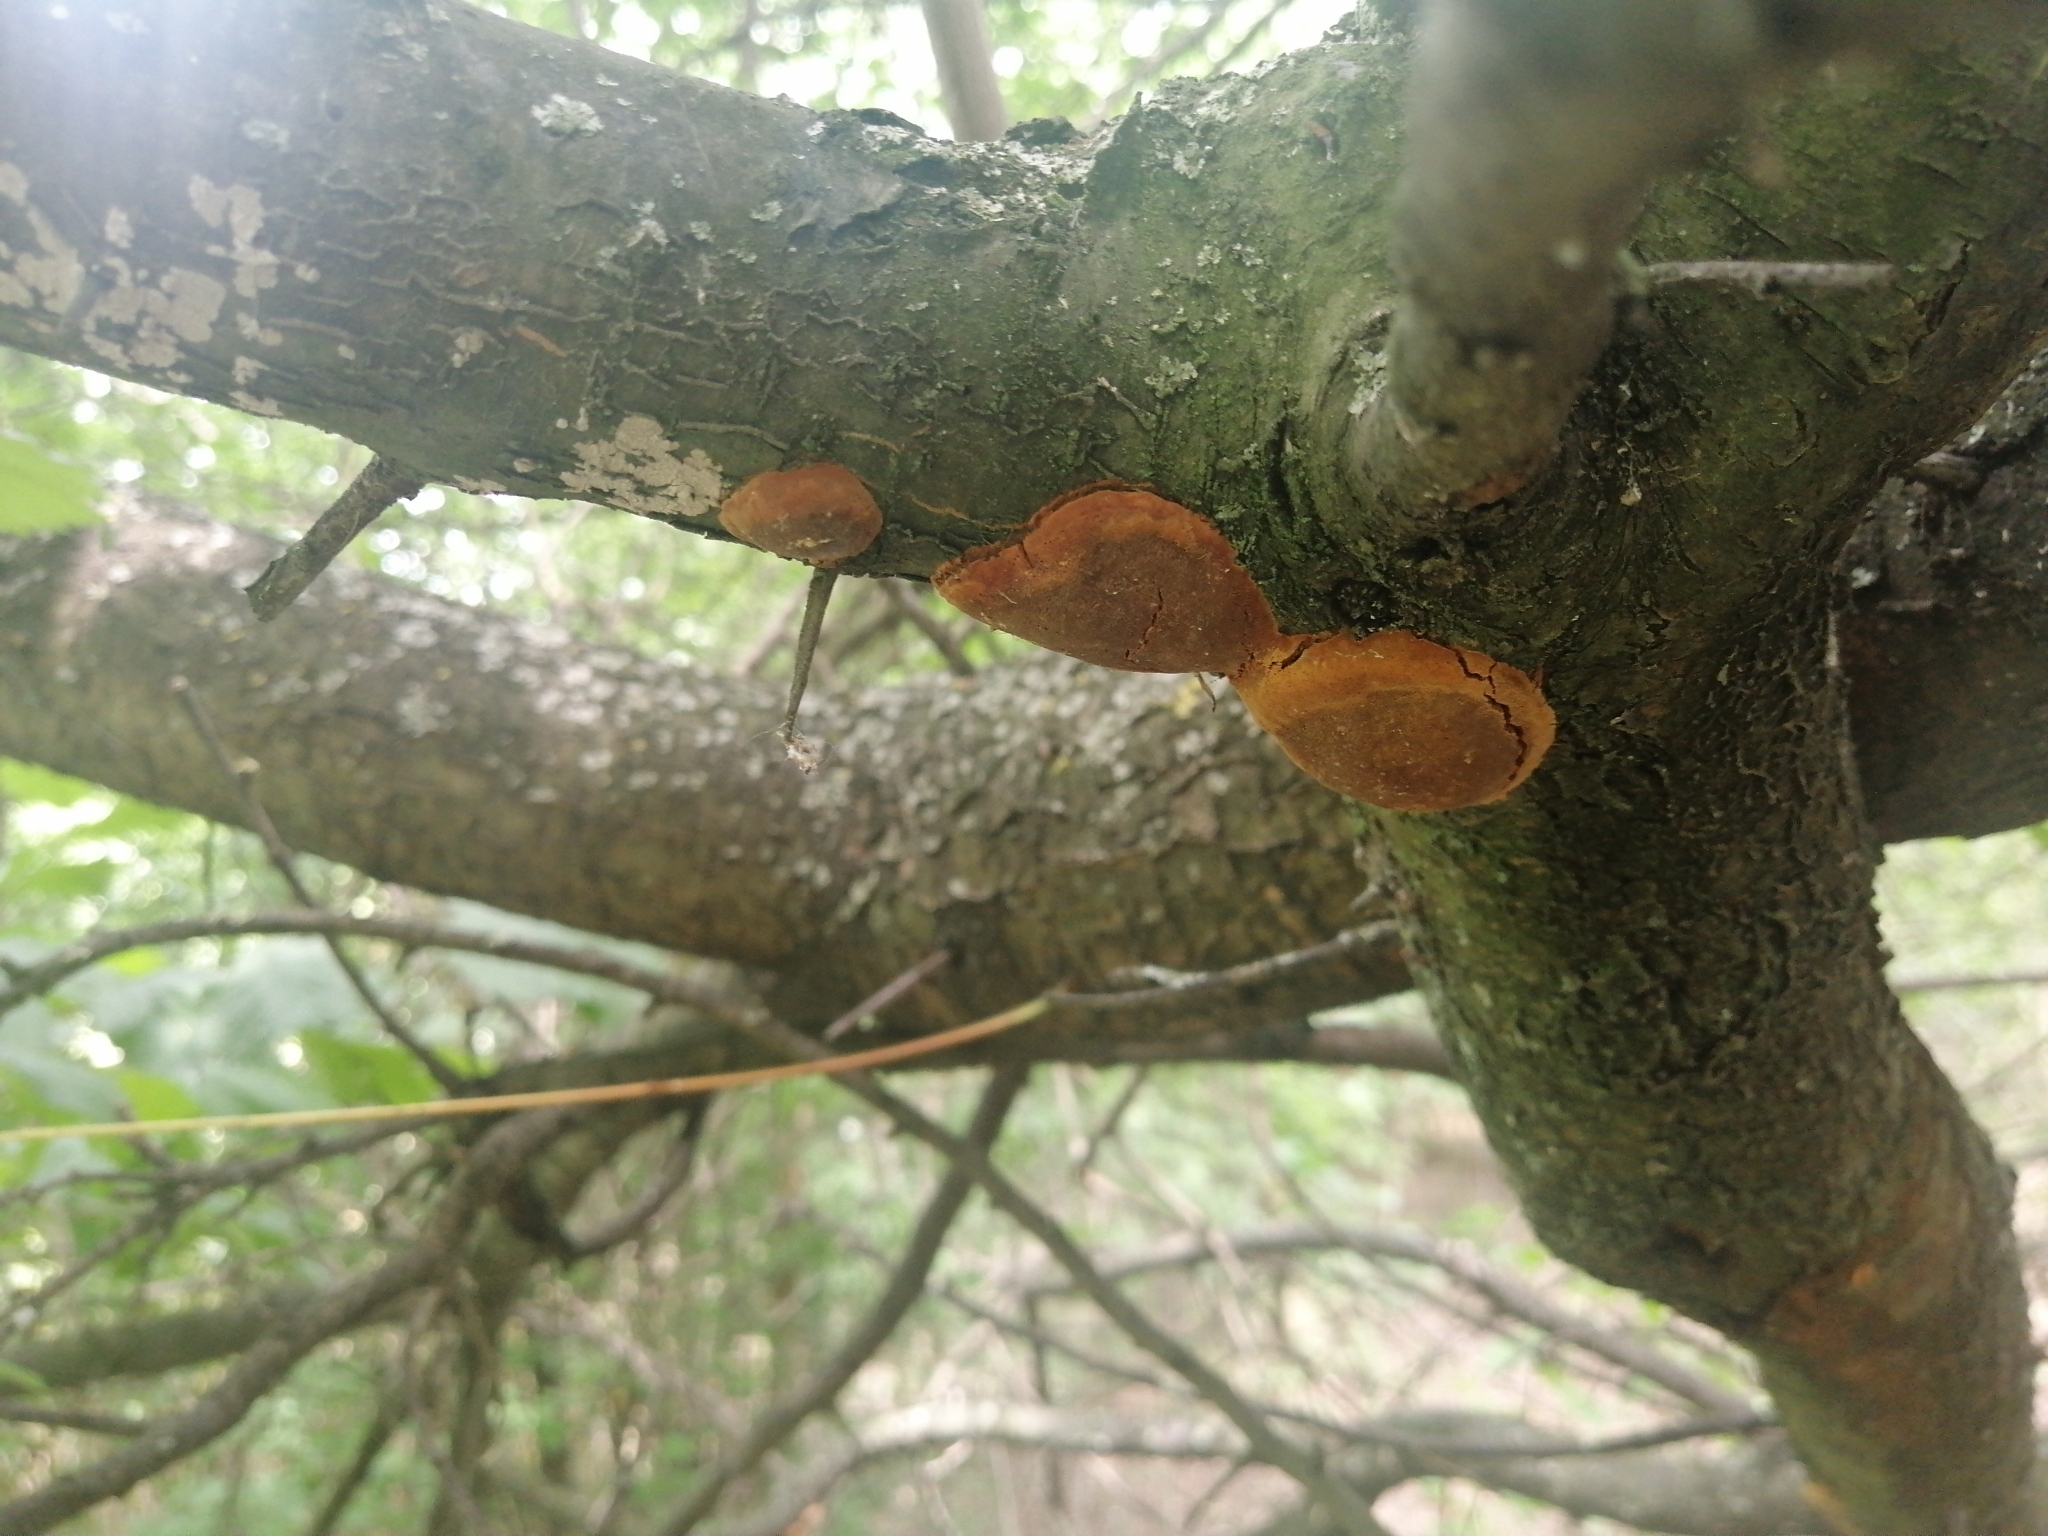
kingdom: Fungi
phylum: Basidiomycota
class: Agaricomycetes
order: Hymenochaetales
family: Hymenochaetaceae
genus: Phellinus
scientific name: Phellinus pomaceus
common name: Cushion bracket
